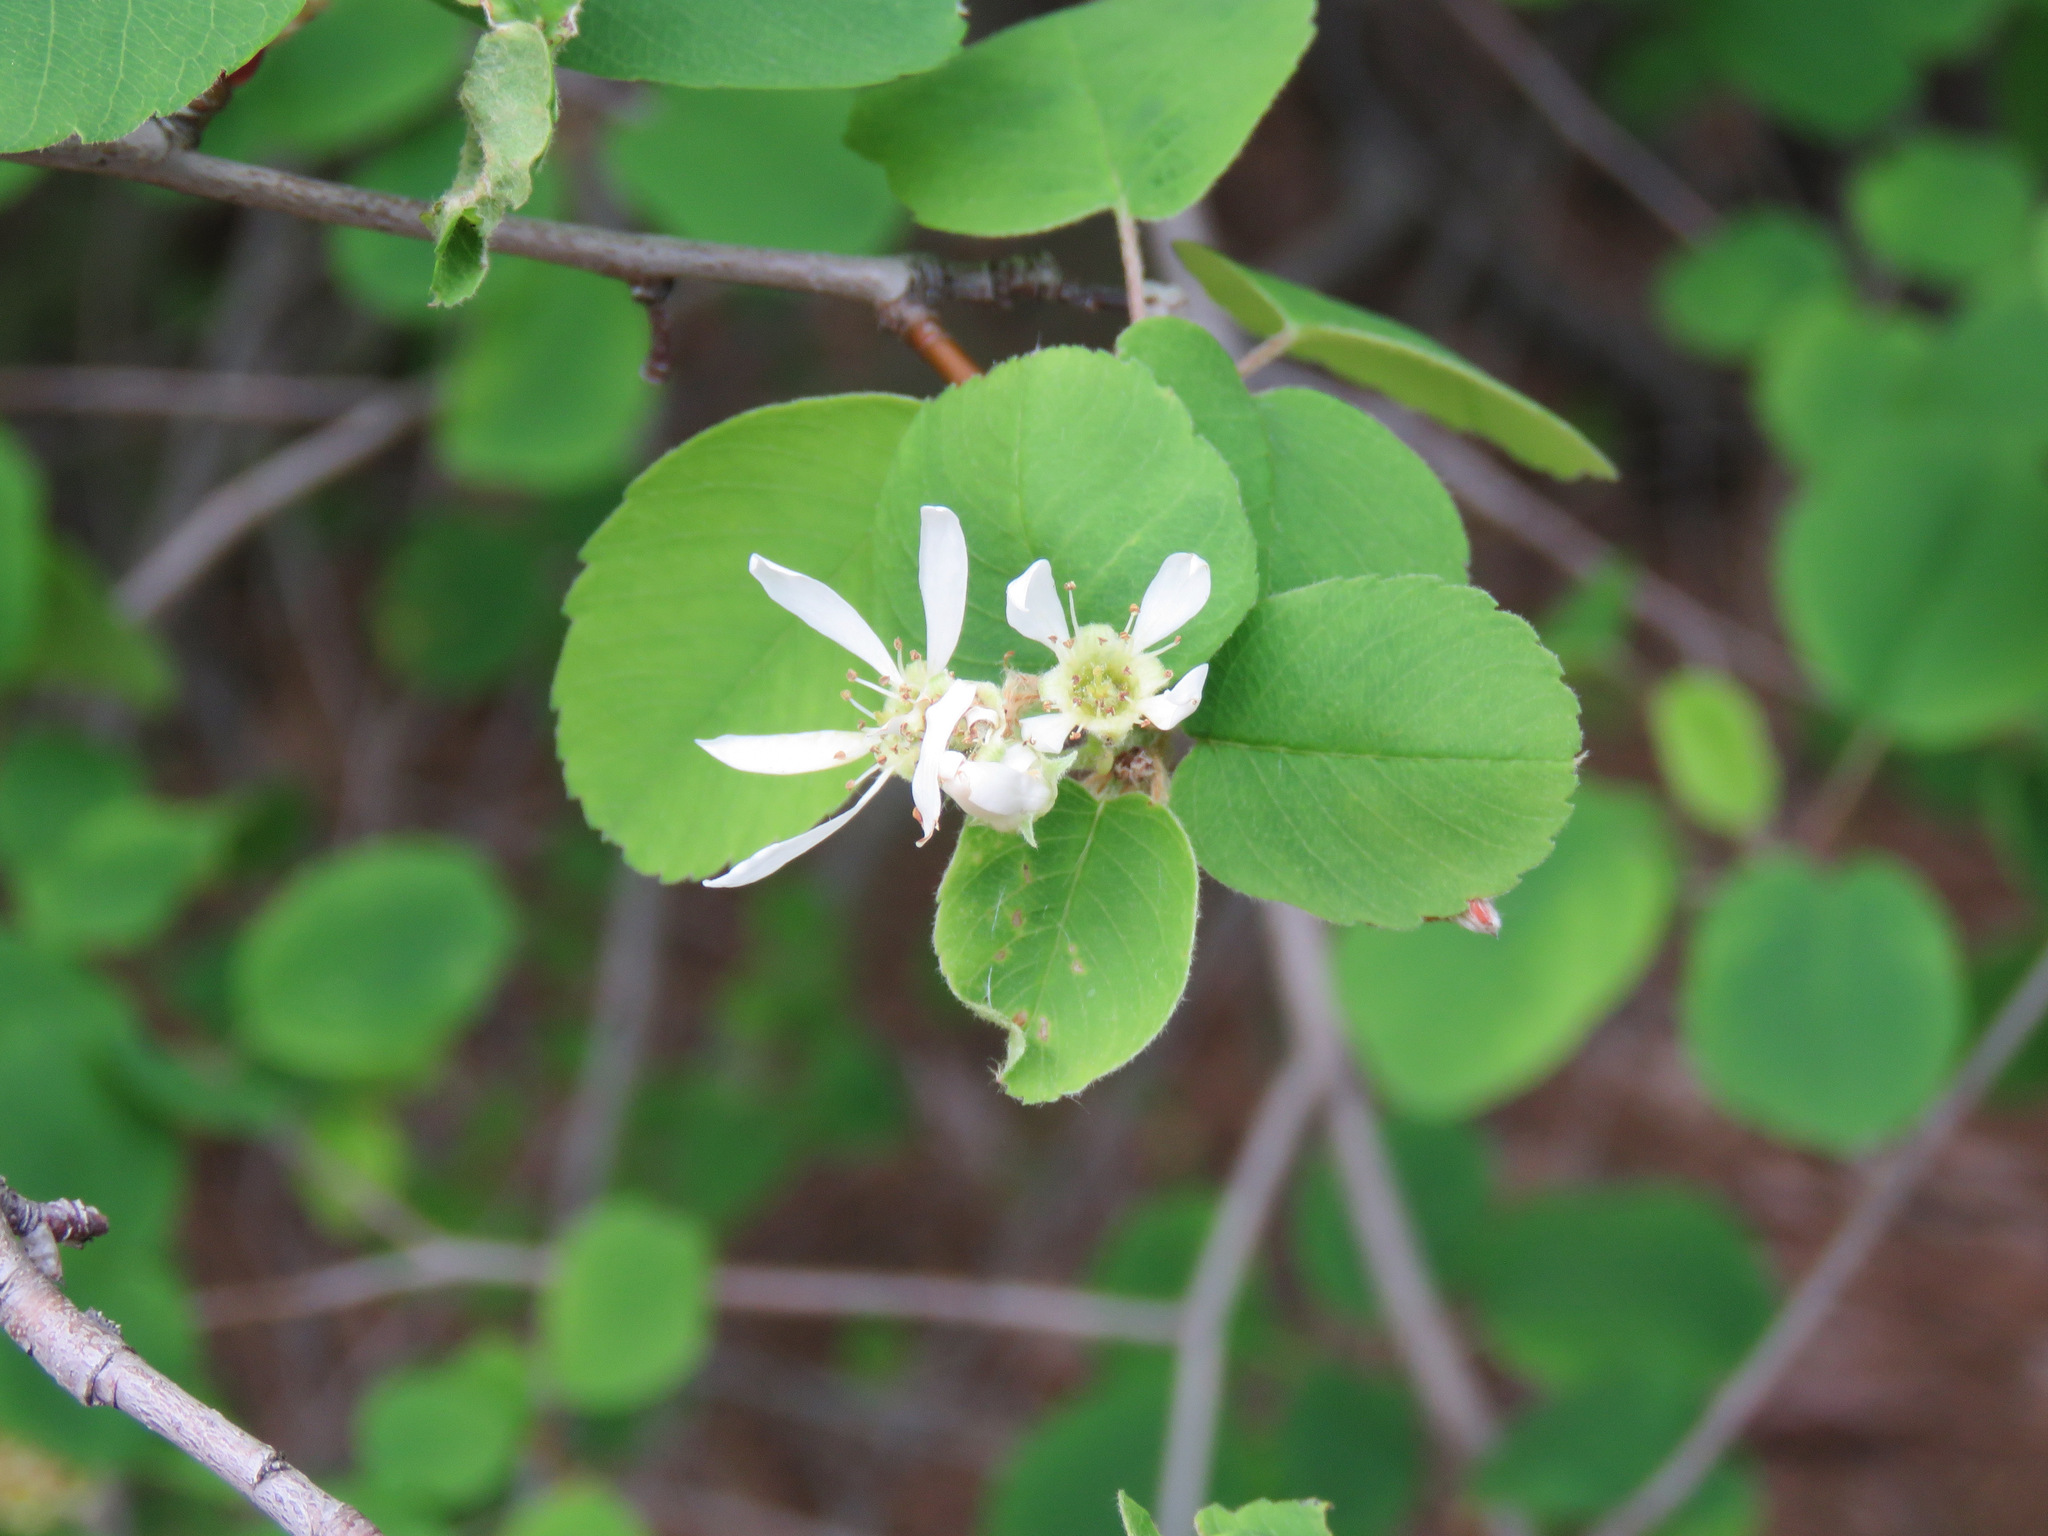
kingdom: Plantae
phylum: Tracheophyta
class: Magnoliopsida
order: Rosales
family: Rosaceae
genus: Amelanchier
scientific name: Amelanchier alnifolia
